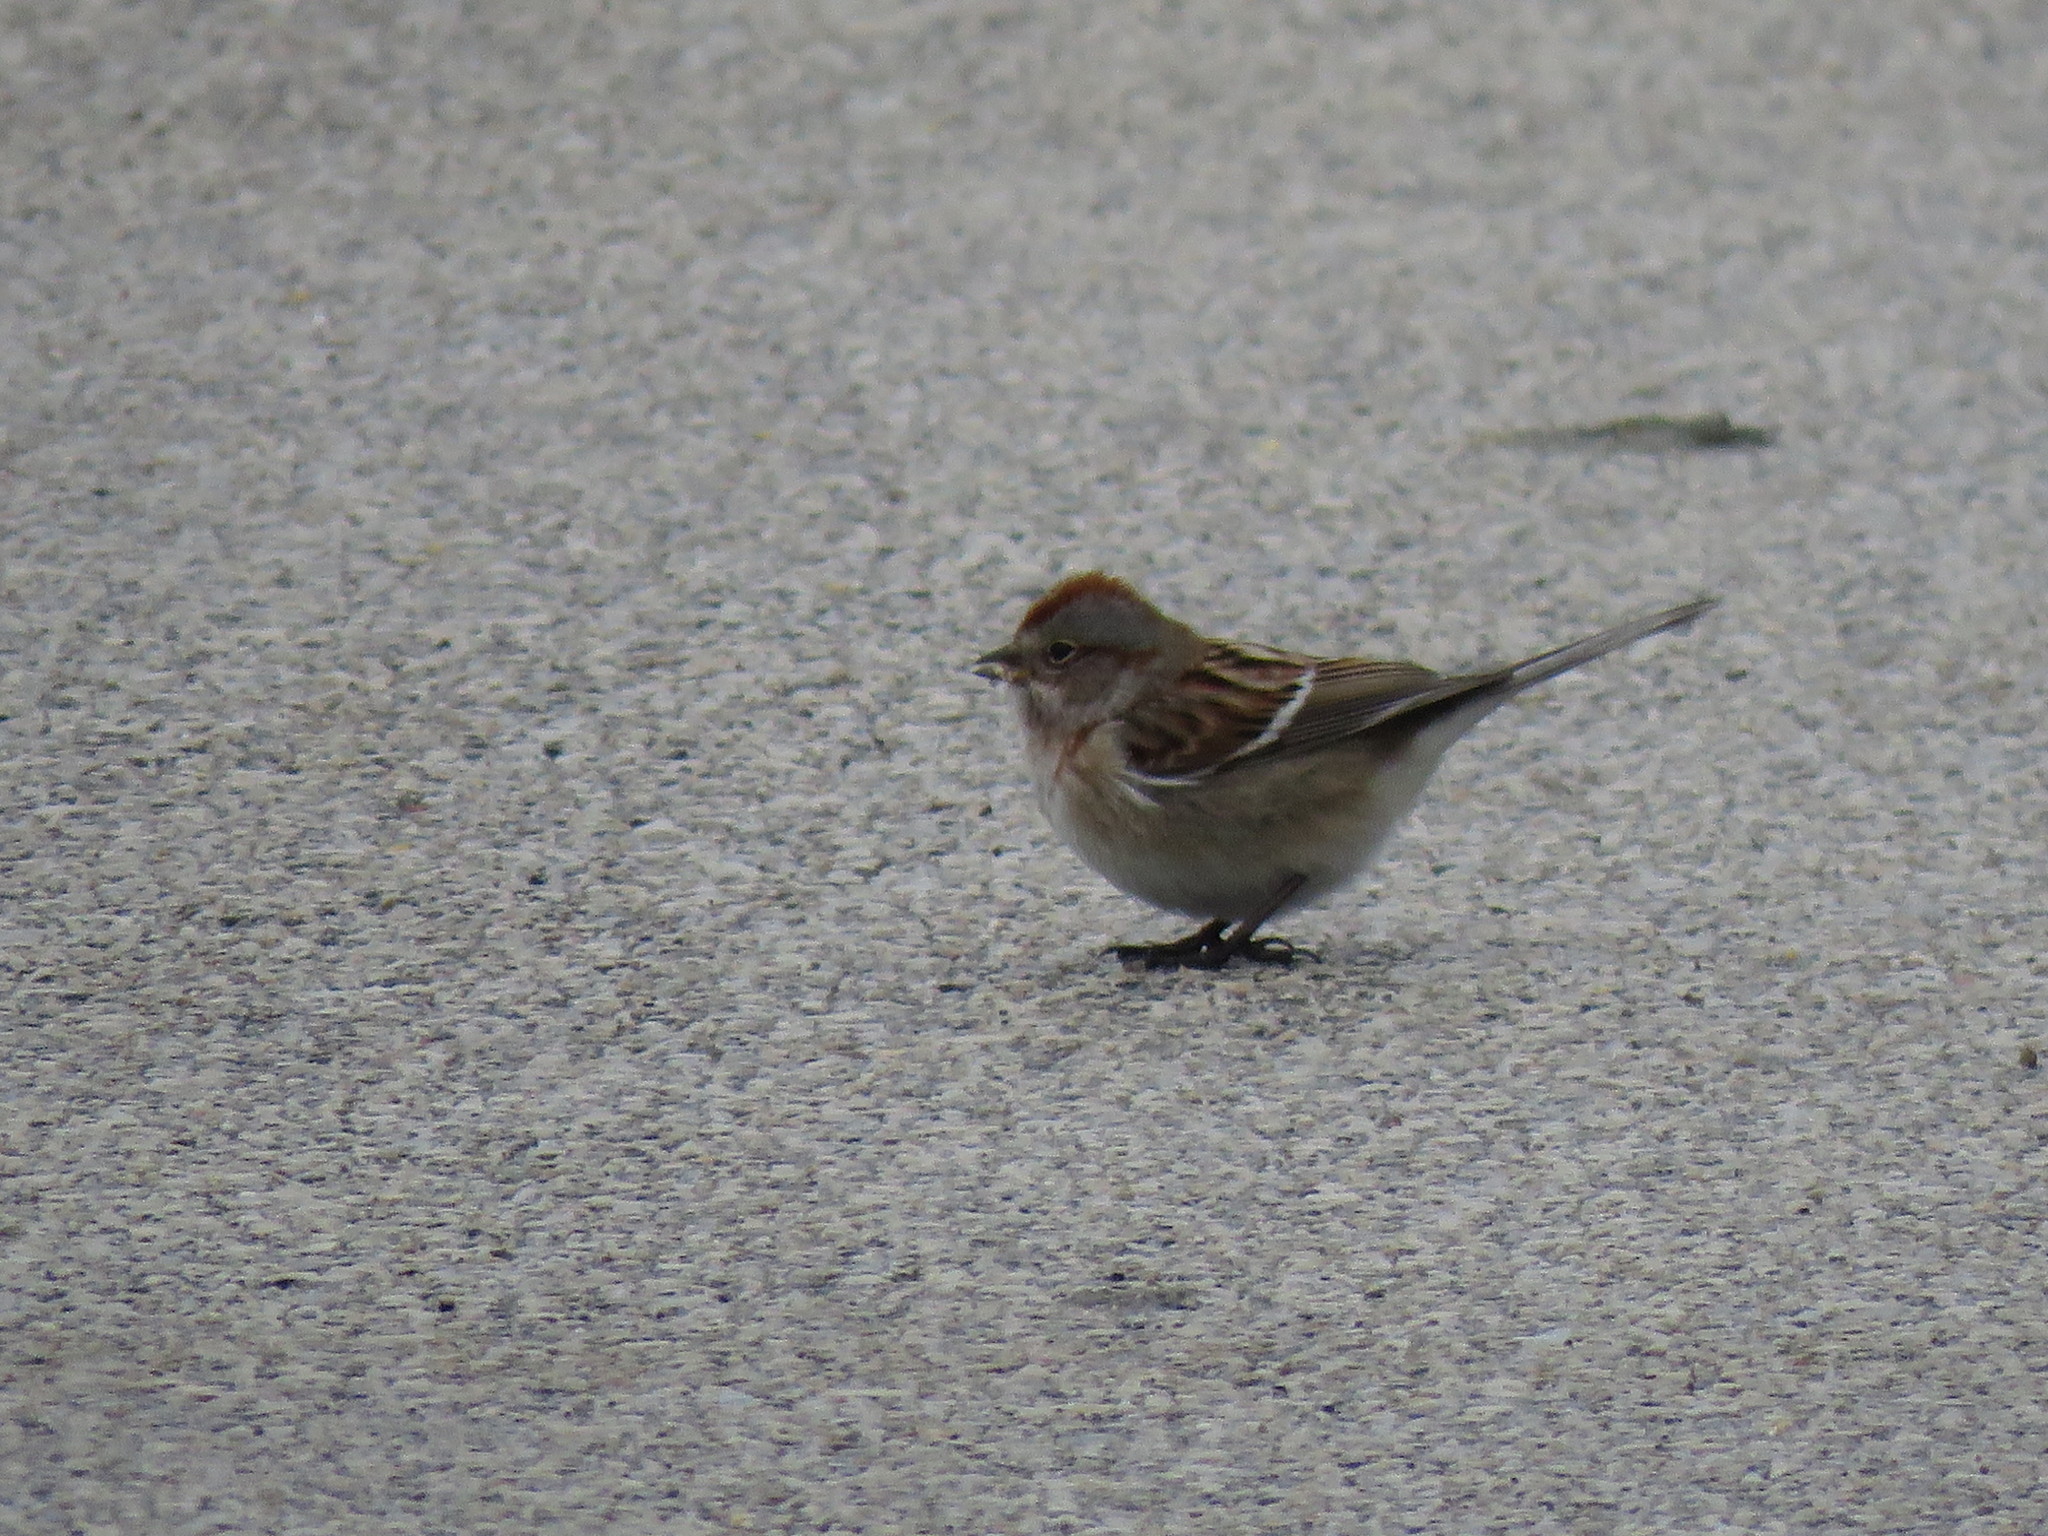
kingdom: Animalia
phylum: Chordata
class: Aves
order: Passeriformes
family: Passerellidae
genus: Spizelloides
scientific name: Spizelloides arborea
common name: American tree sparrow
